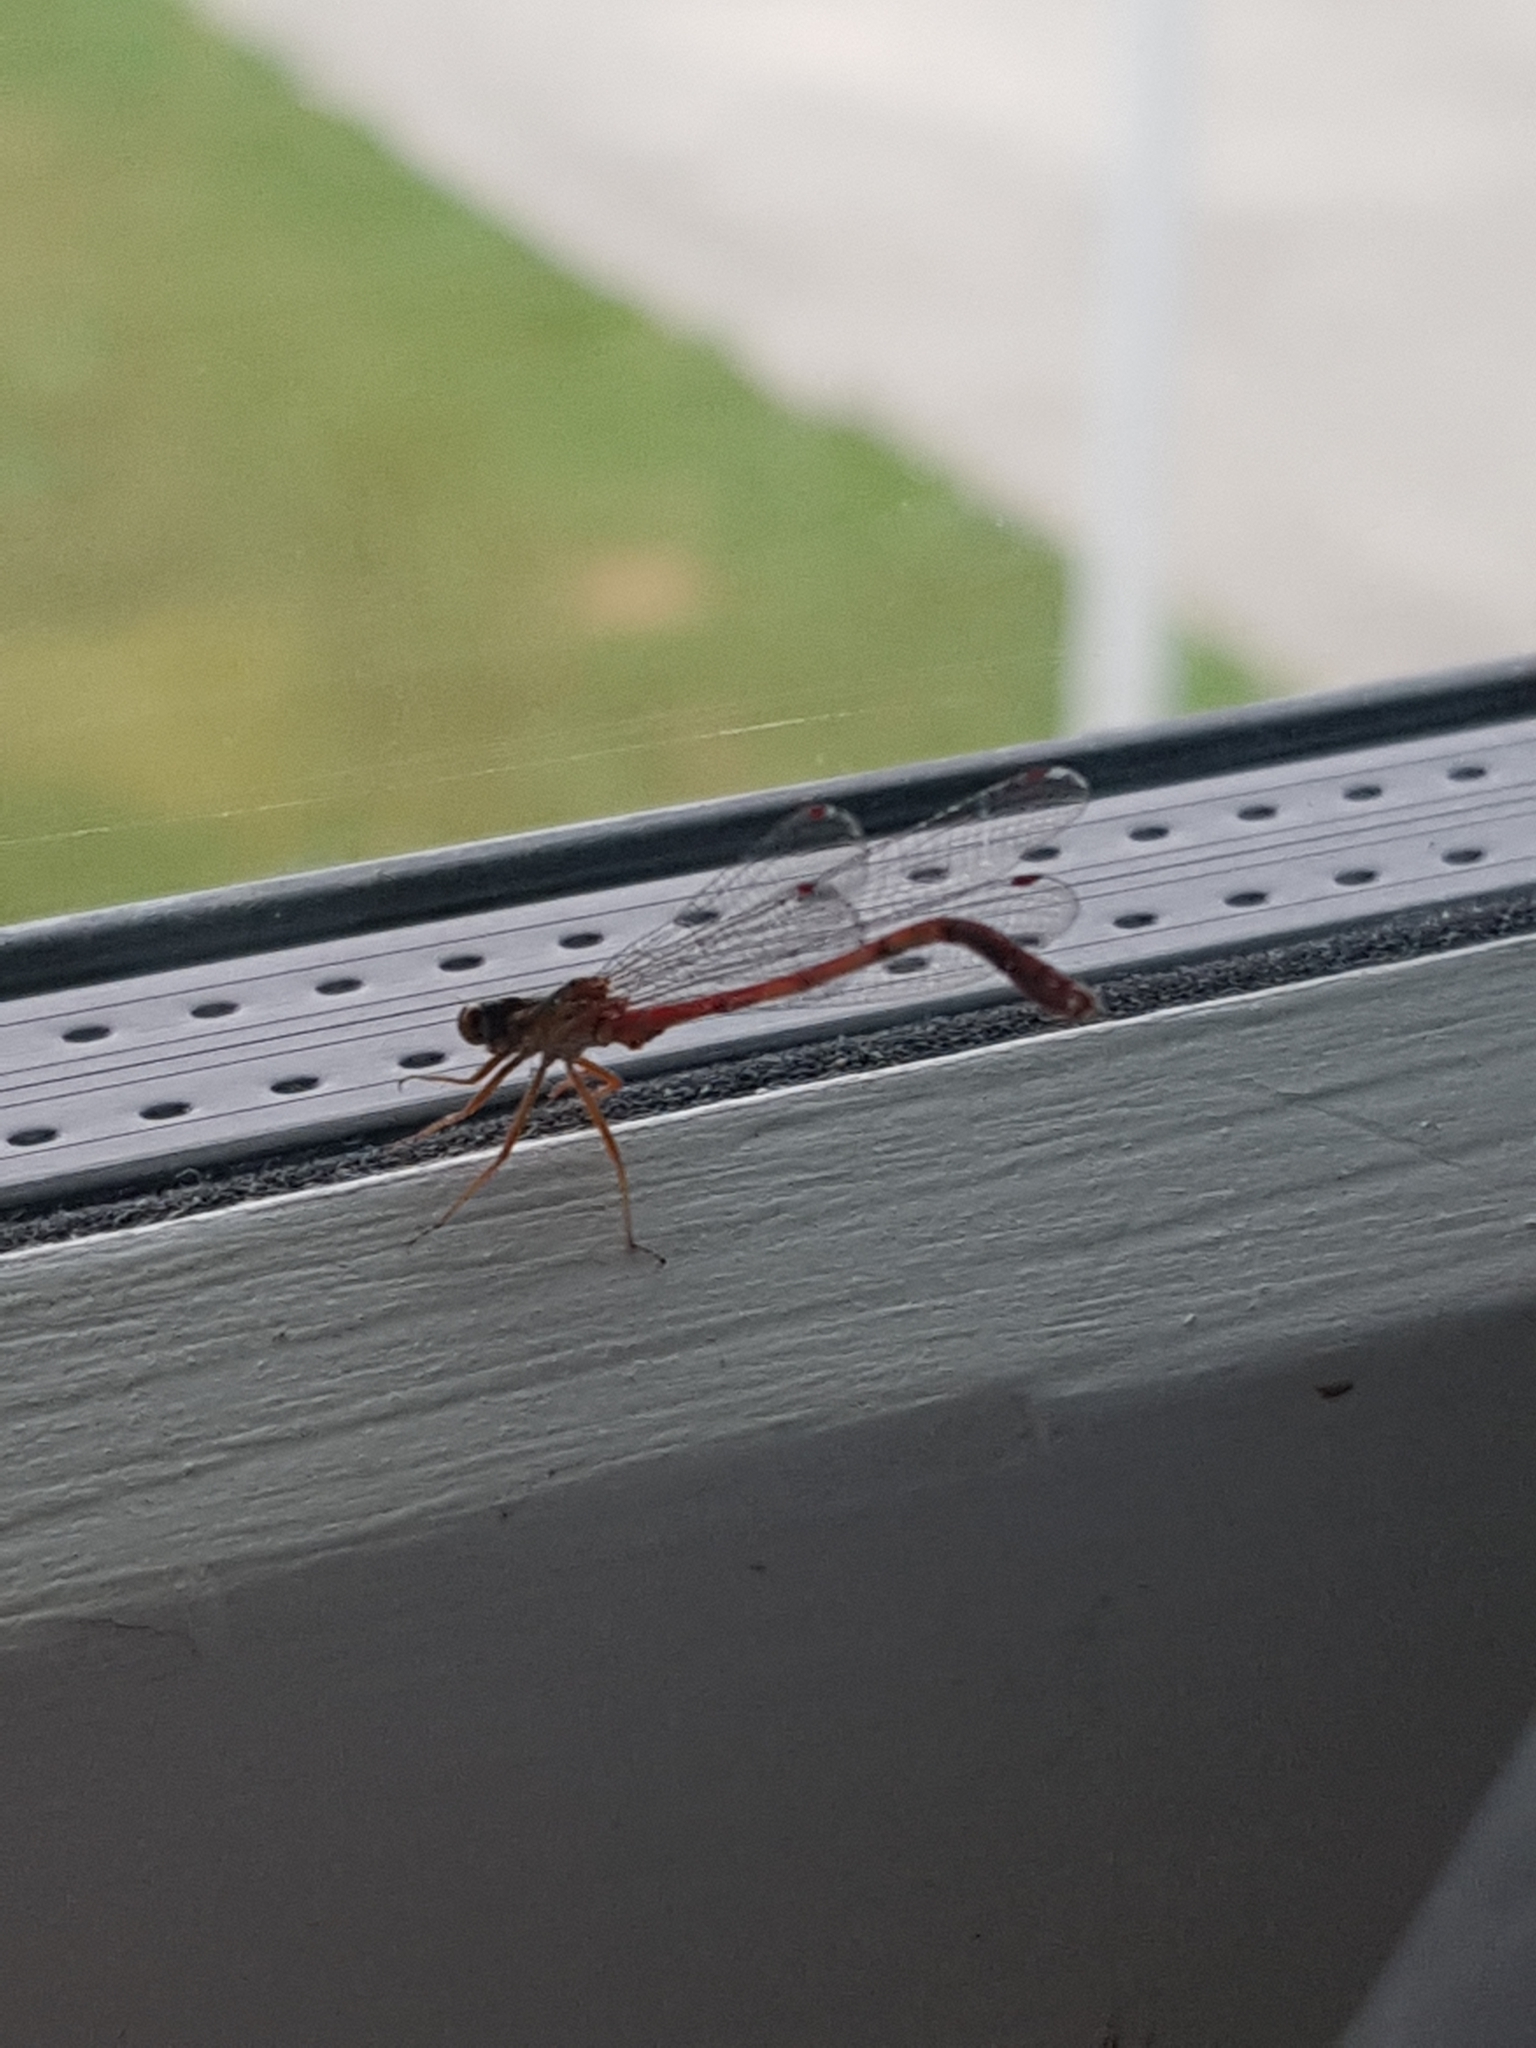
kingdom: Animalia
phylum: Arthropoda
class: Insecta
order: Odonata
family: Coenagrionidae
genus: Xanthocnemis
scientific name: Xanthocnemis zealandica
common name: Common redcoat damselfly
